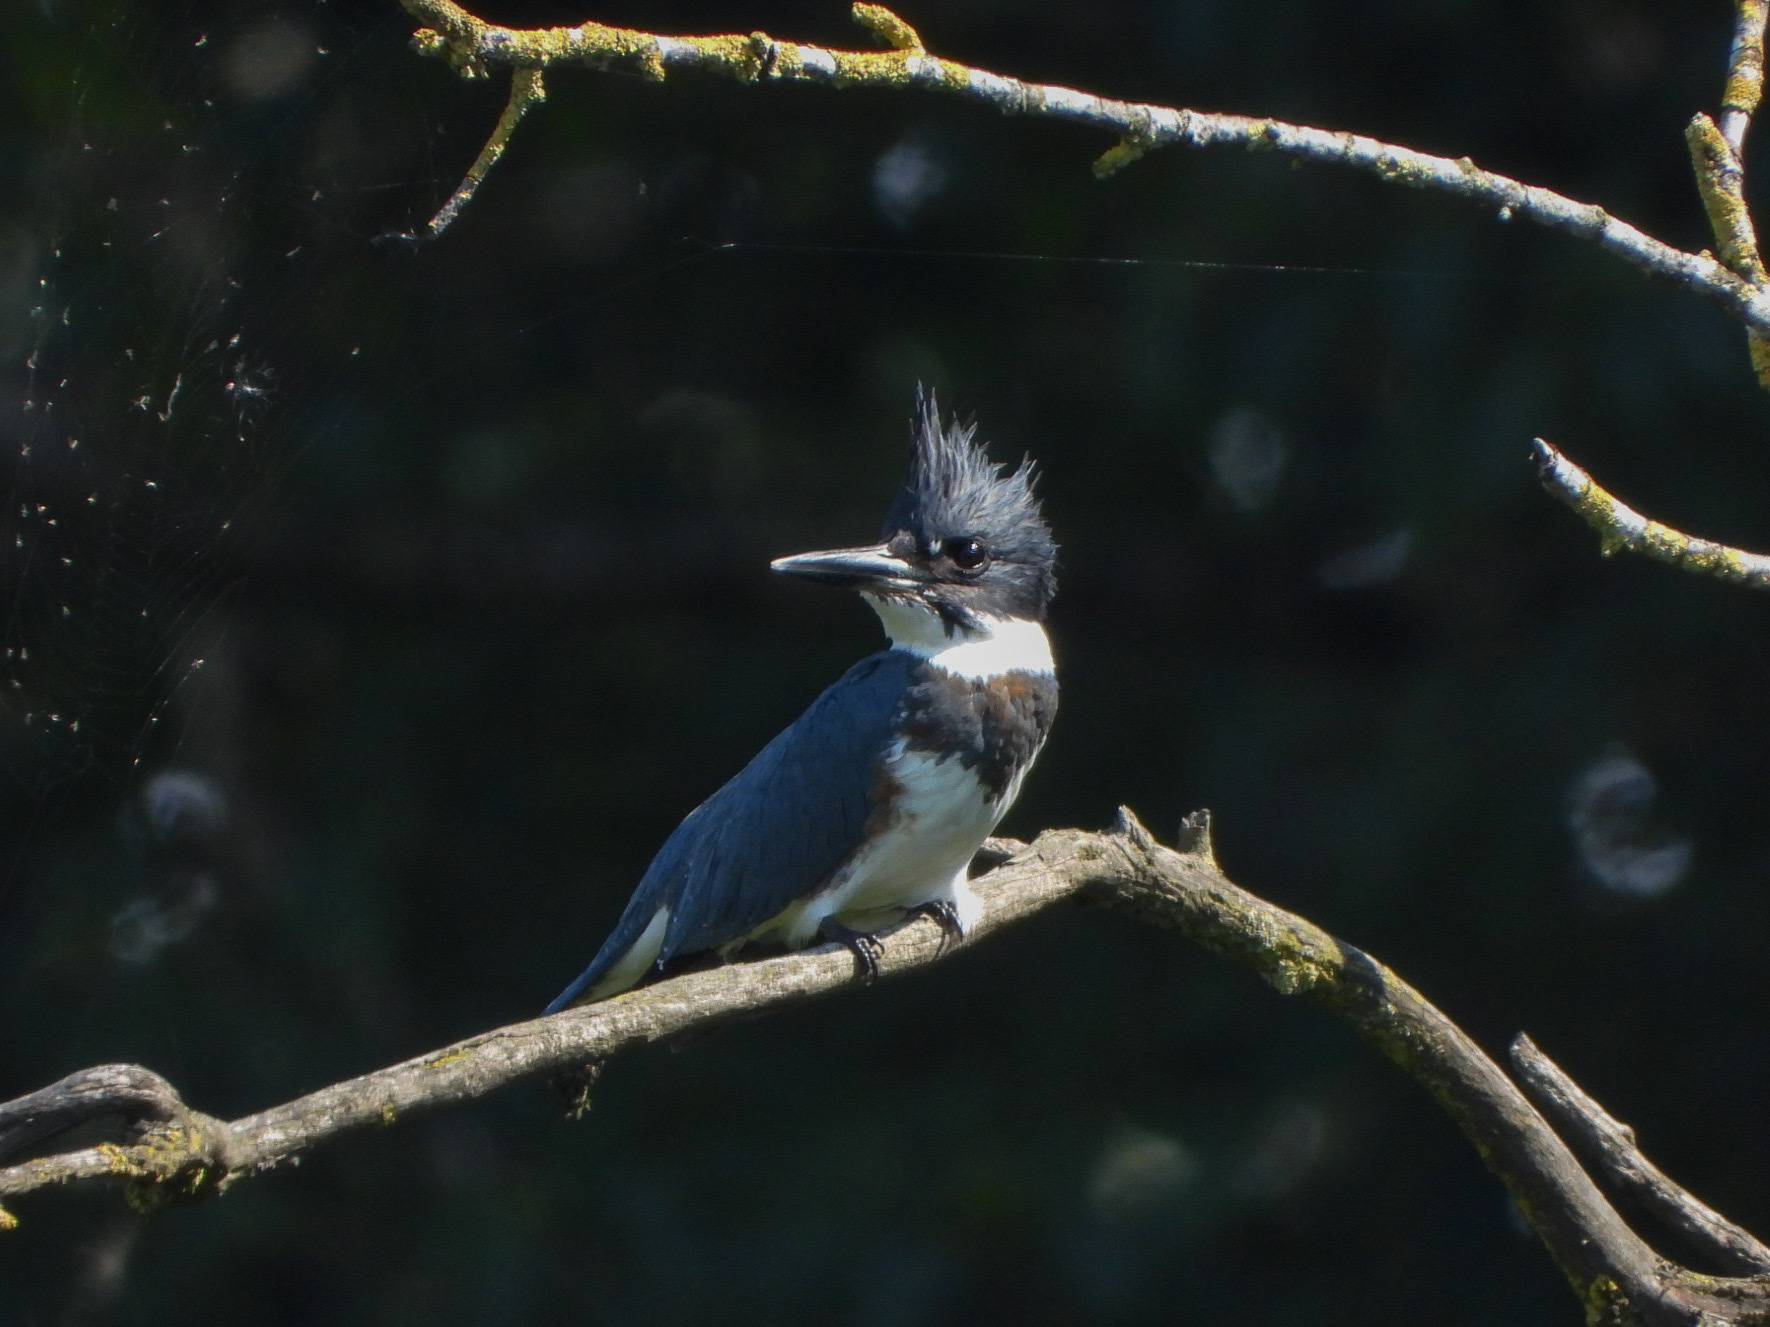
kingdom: Animalia
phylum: Chordata
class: Aves
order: Coraciiformes
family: Alcedinidae
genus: Megaceryle
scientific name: Megaceryle alcyon
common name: Belted kingfisher
